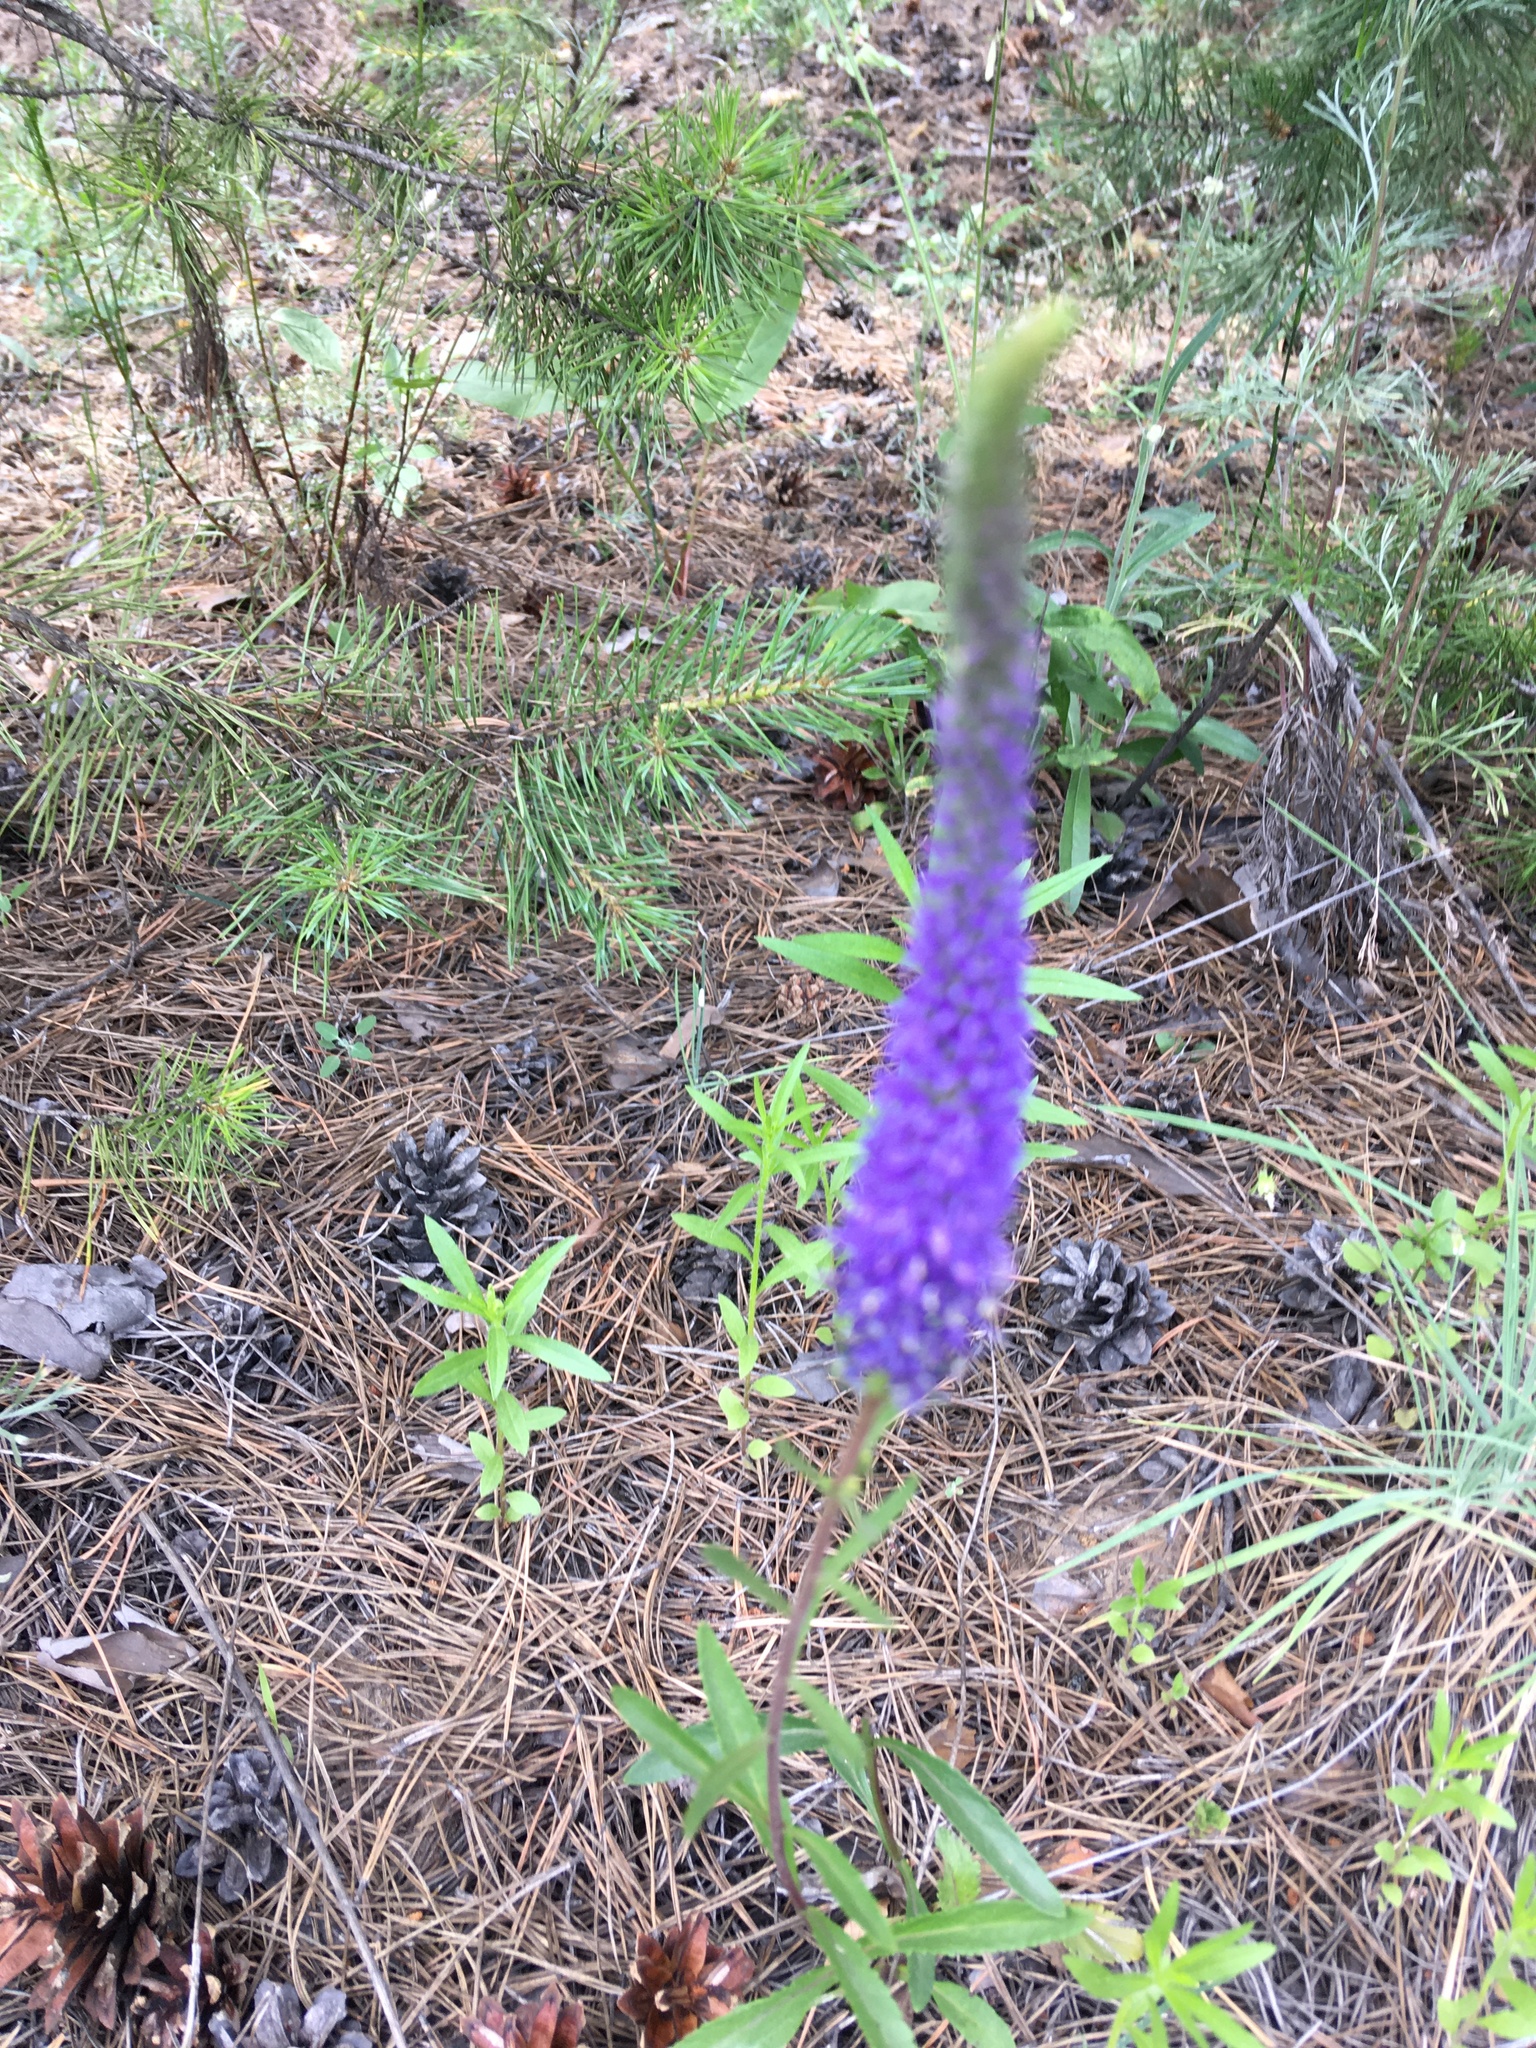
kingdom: Plantae
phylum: Tracheophyta
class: Magnoliopsida
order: Lamiales
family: Plantaginaceae
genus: Veronica
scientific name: Veronica spicata
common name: Spiked speedwell
